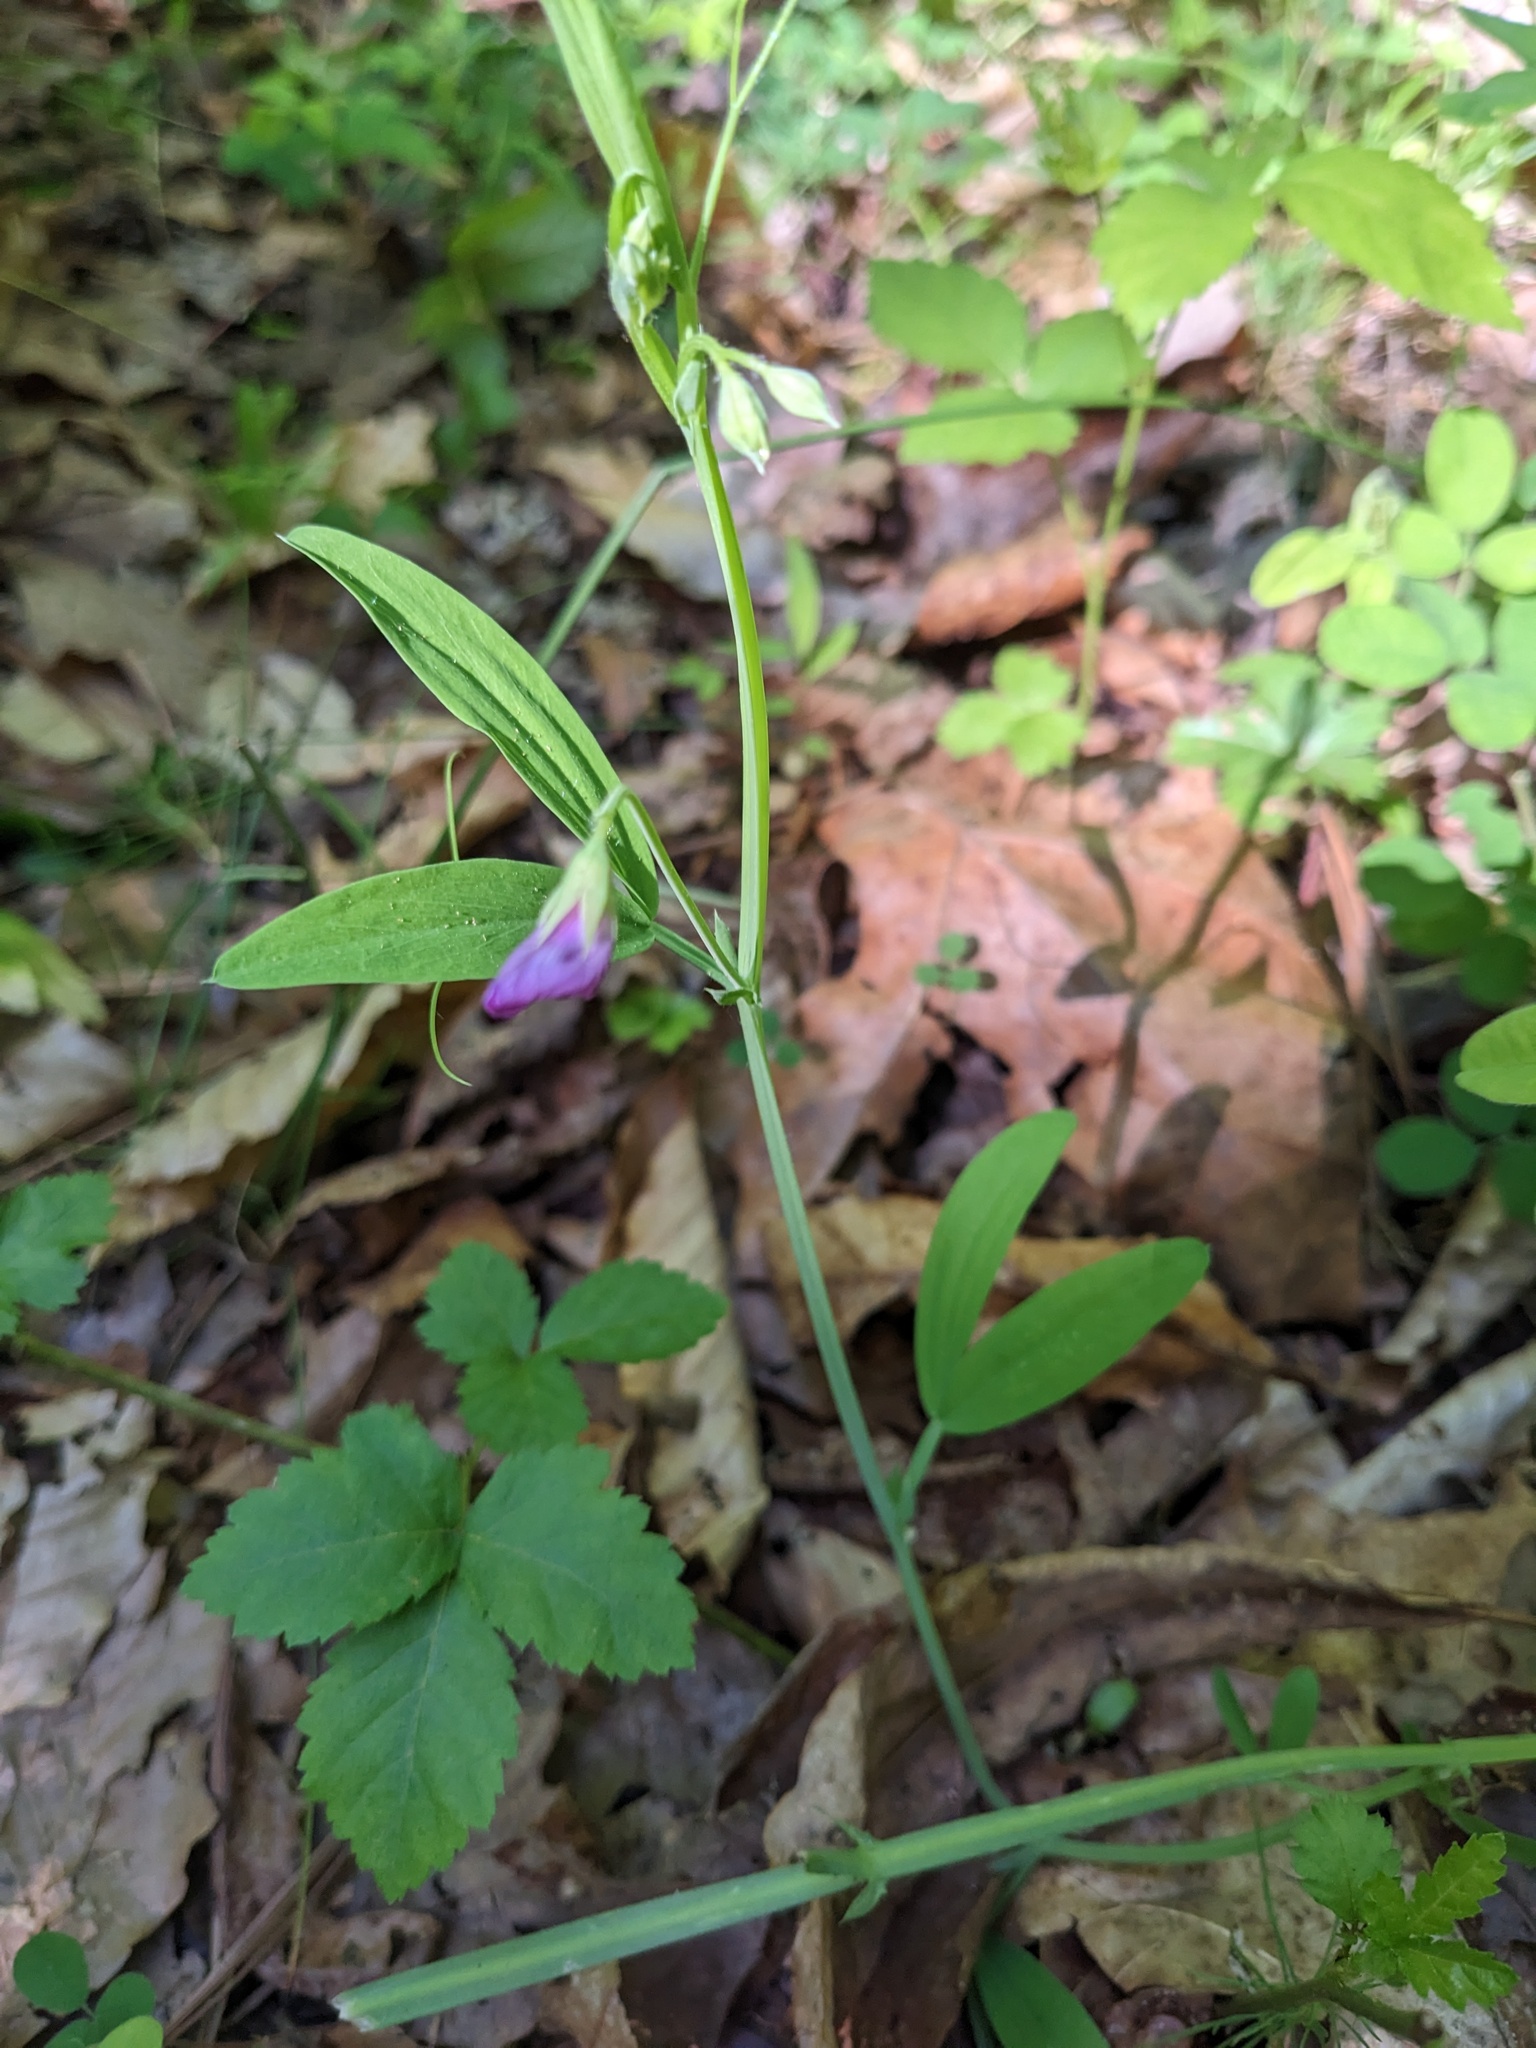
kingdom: Plantae
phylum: Tracheophyta
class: Magnoliopsida
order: Fabales
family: Fabaceae
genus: Lathyrus
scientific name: Lathyrus hirsutus
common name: Hairy vetchling
